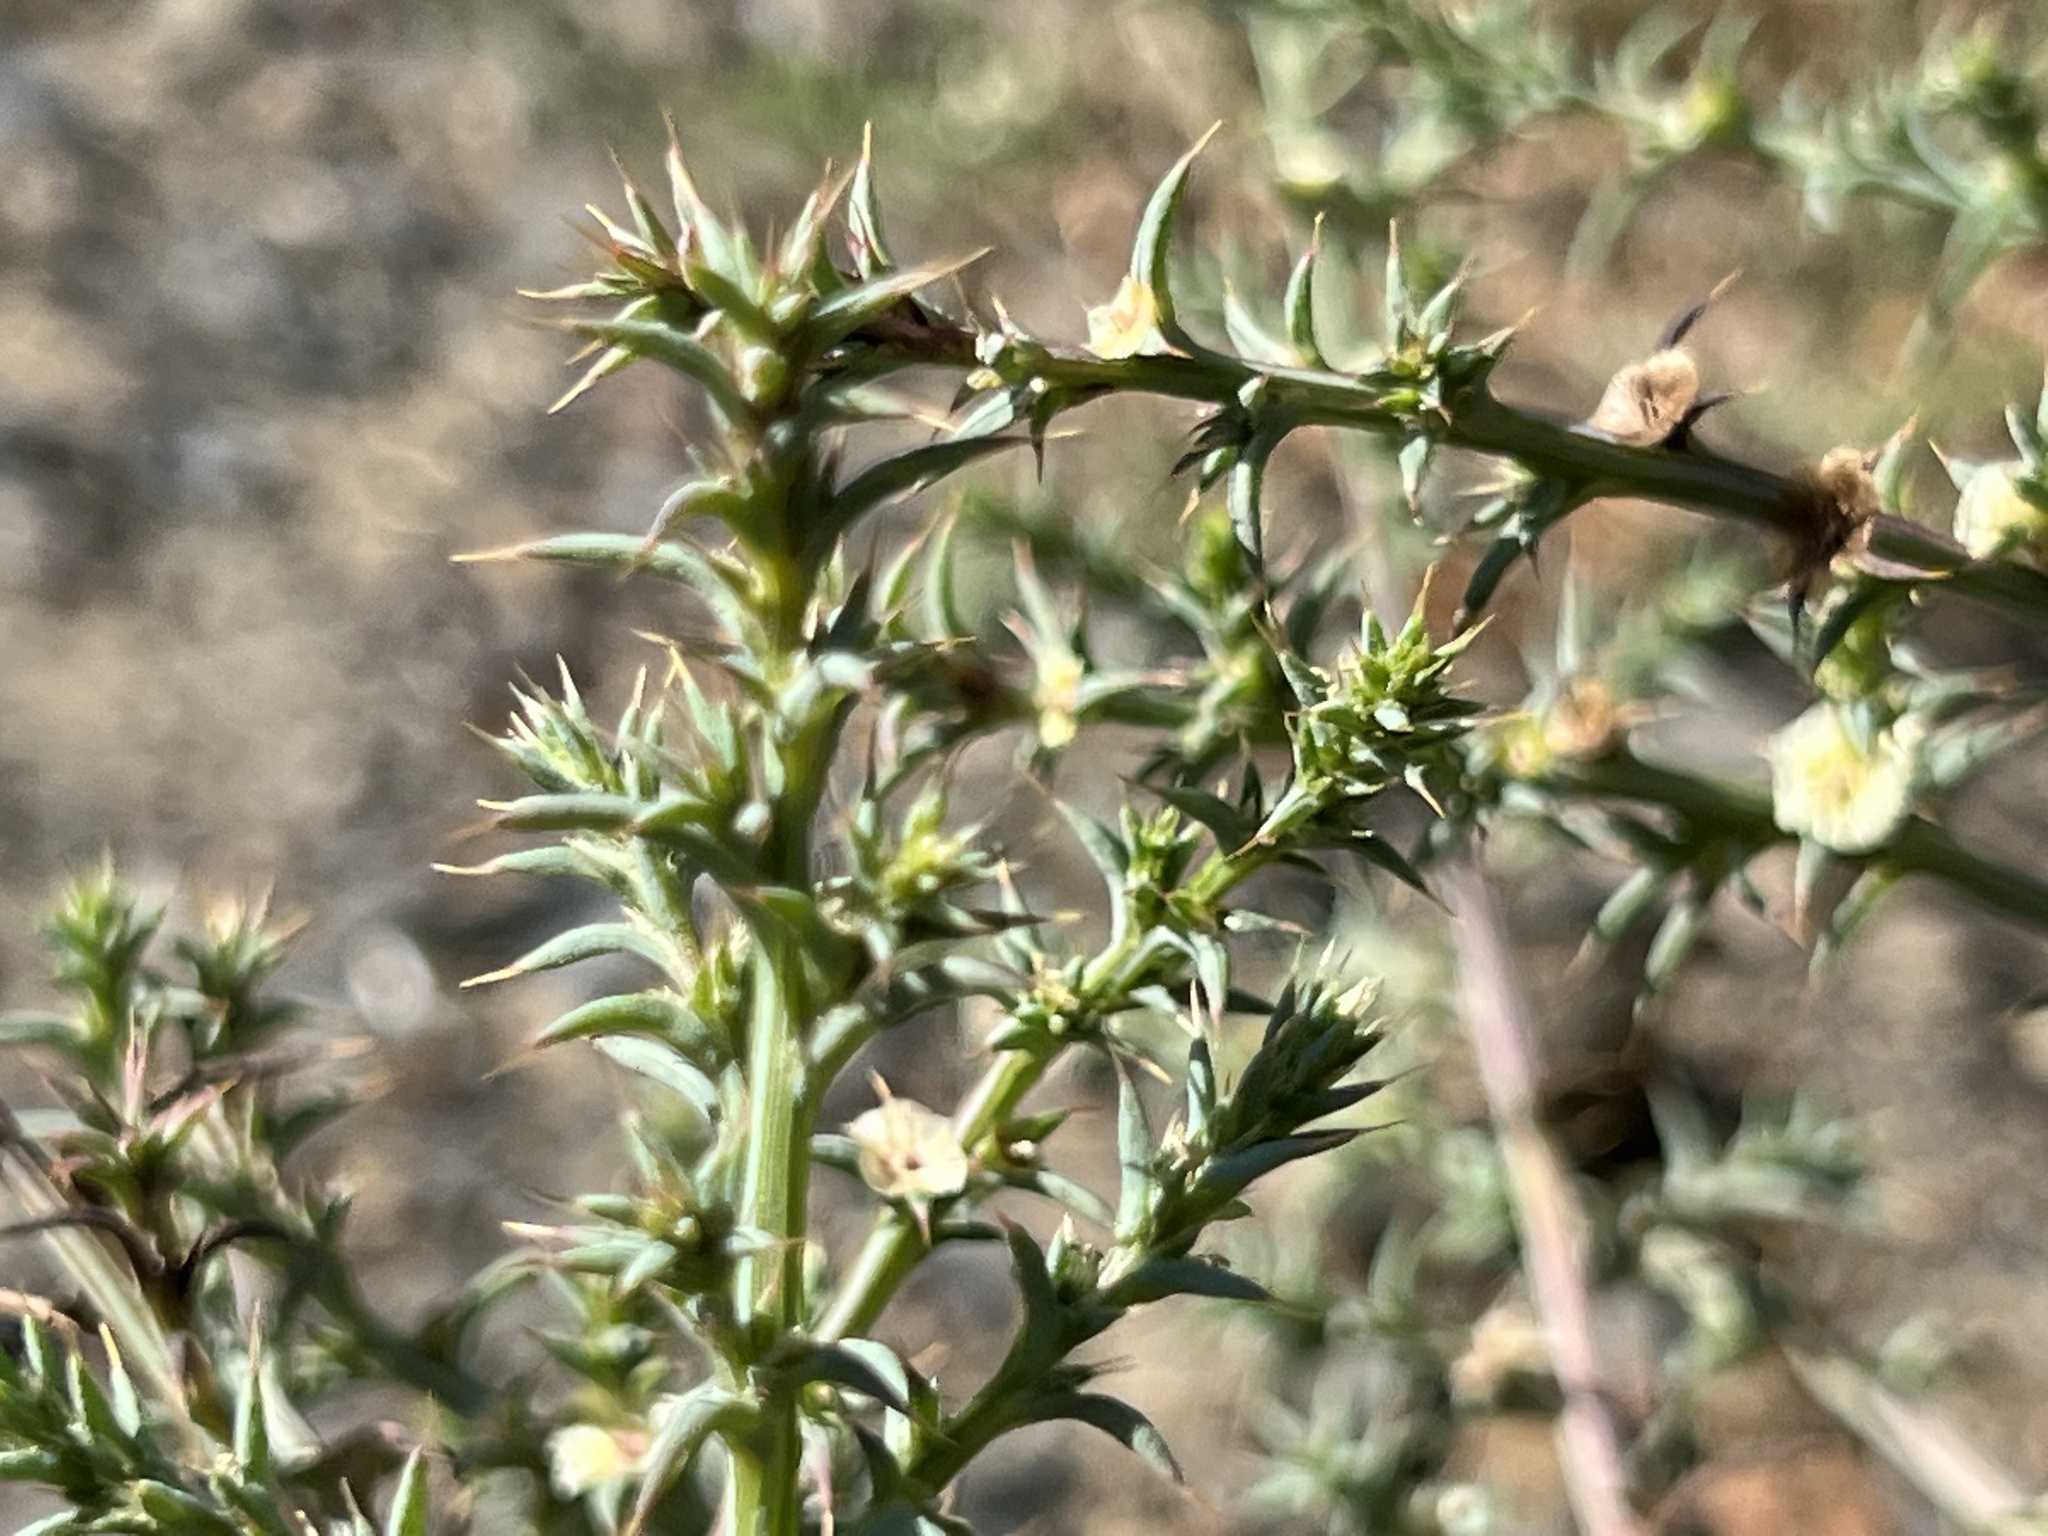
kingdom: Plantae
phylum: Tracheophyta
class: Magnoliopsida
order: Caryophyllales
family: Amaranthaceae
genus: Salsola
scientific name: Salsola australis
